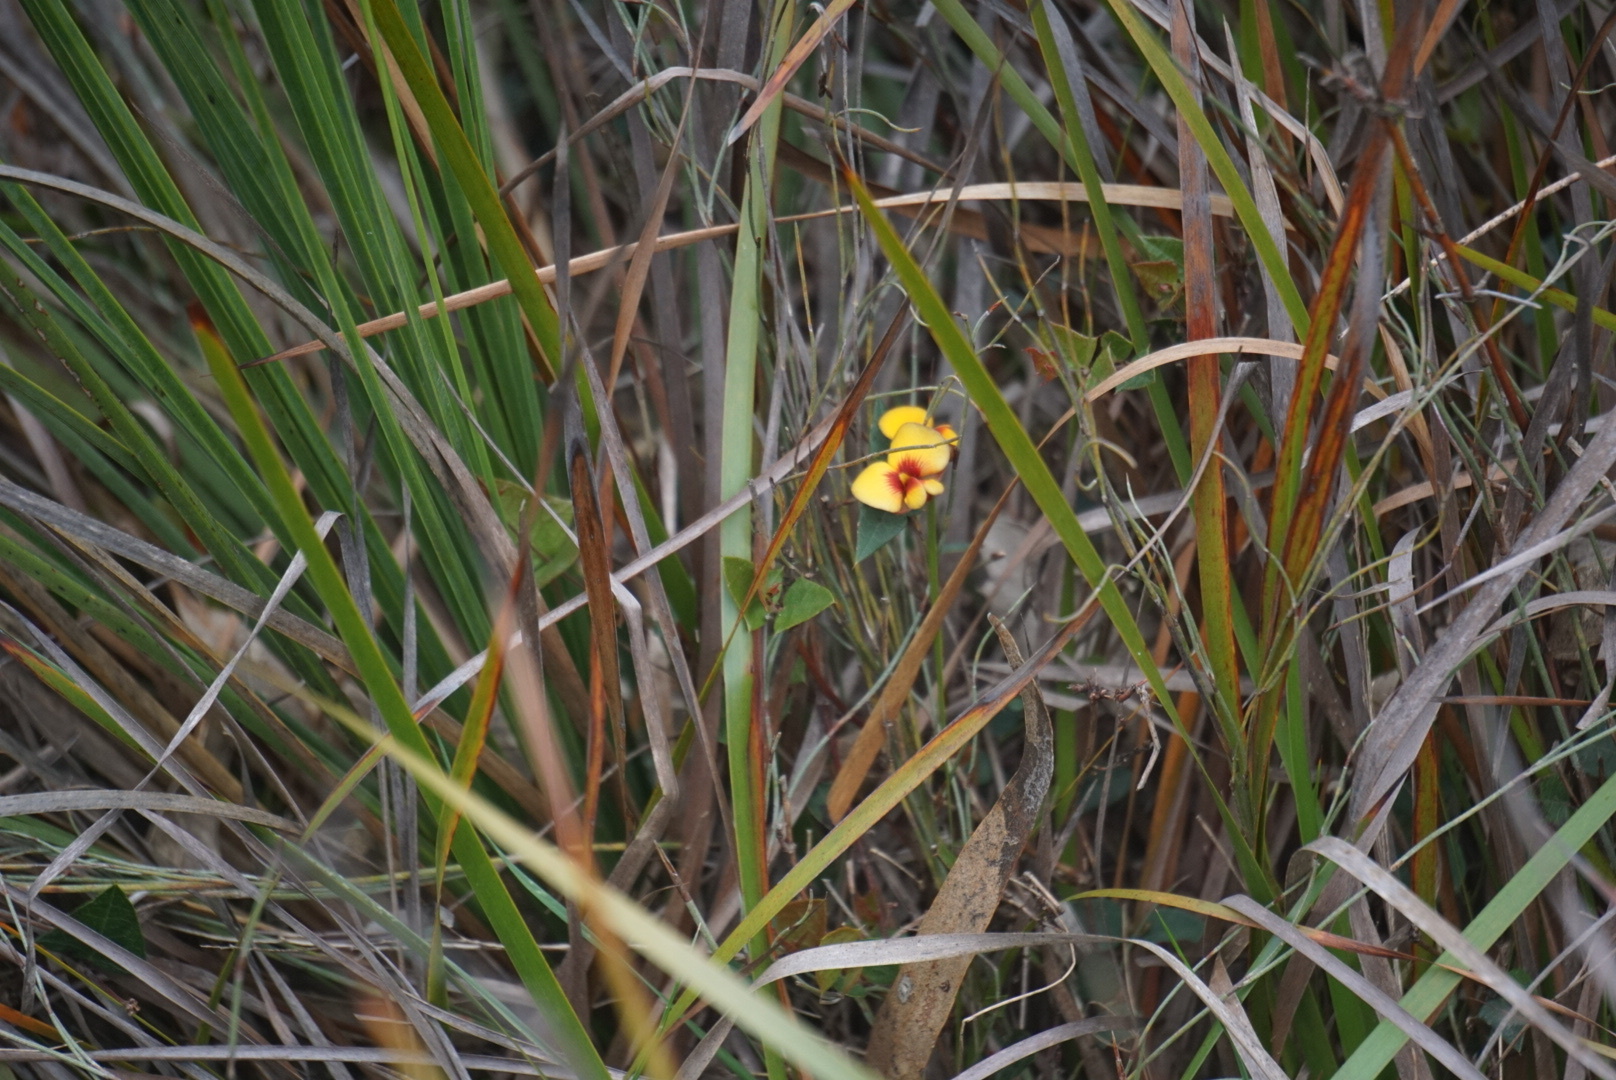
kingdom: Plantae
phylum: Tracheophyta
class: Magnoliopsida
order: Fabales
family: Fabaceae
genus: Platylobium
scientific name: Platylobium obtusangulum
